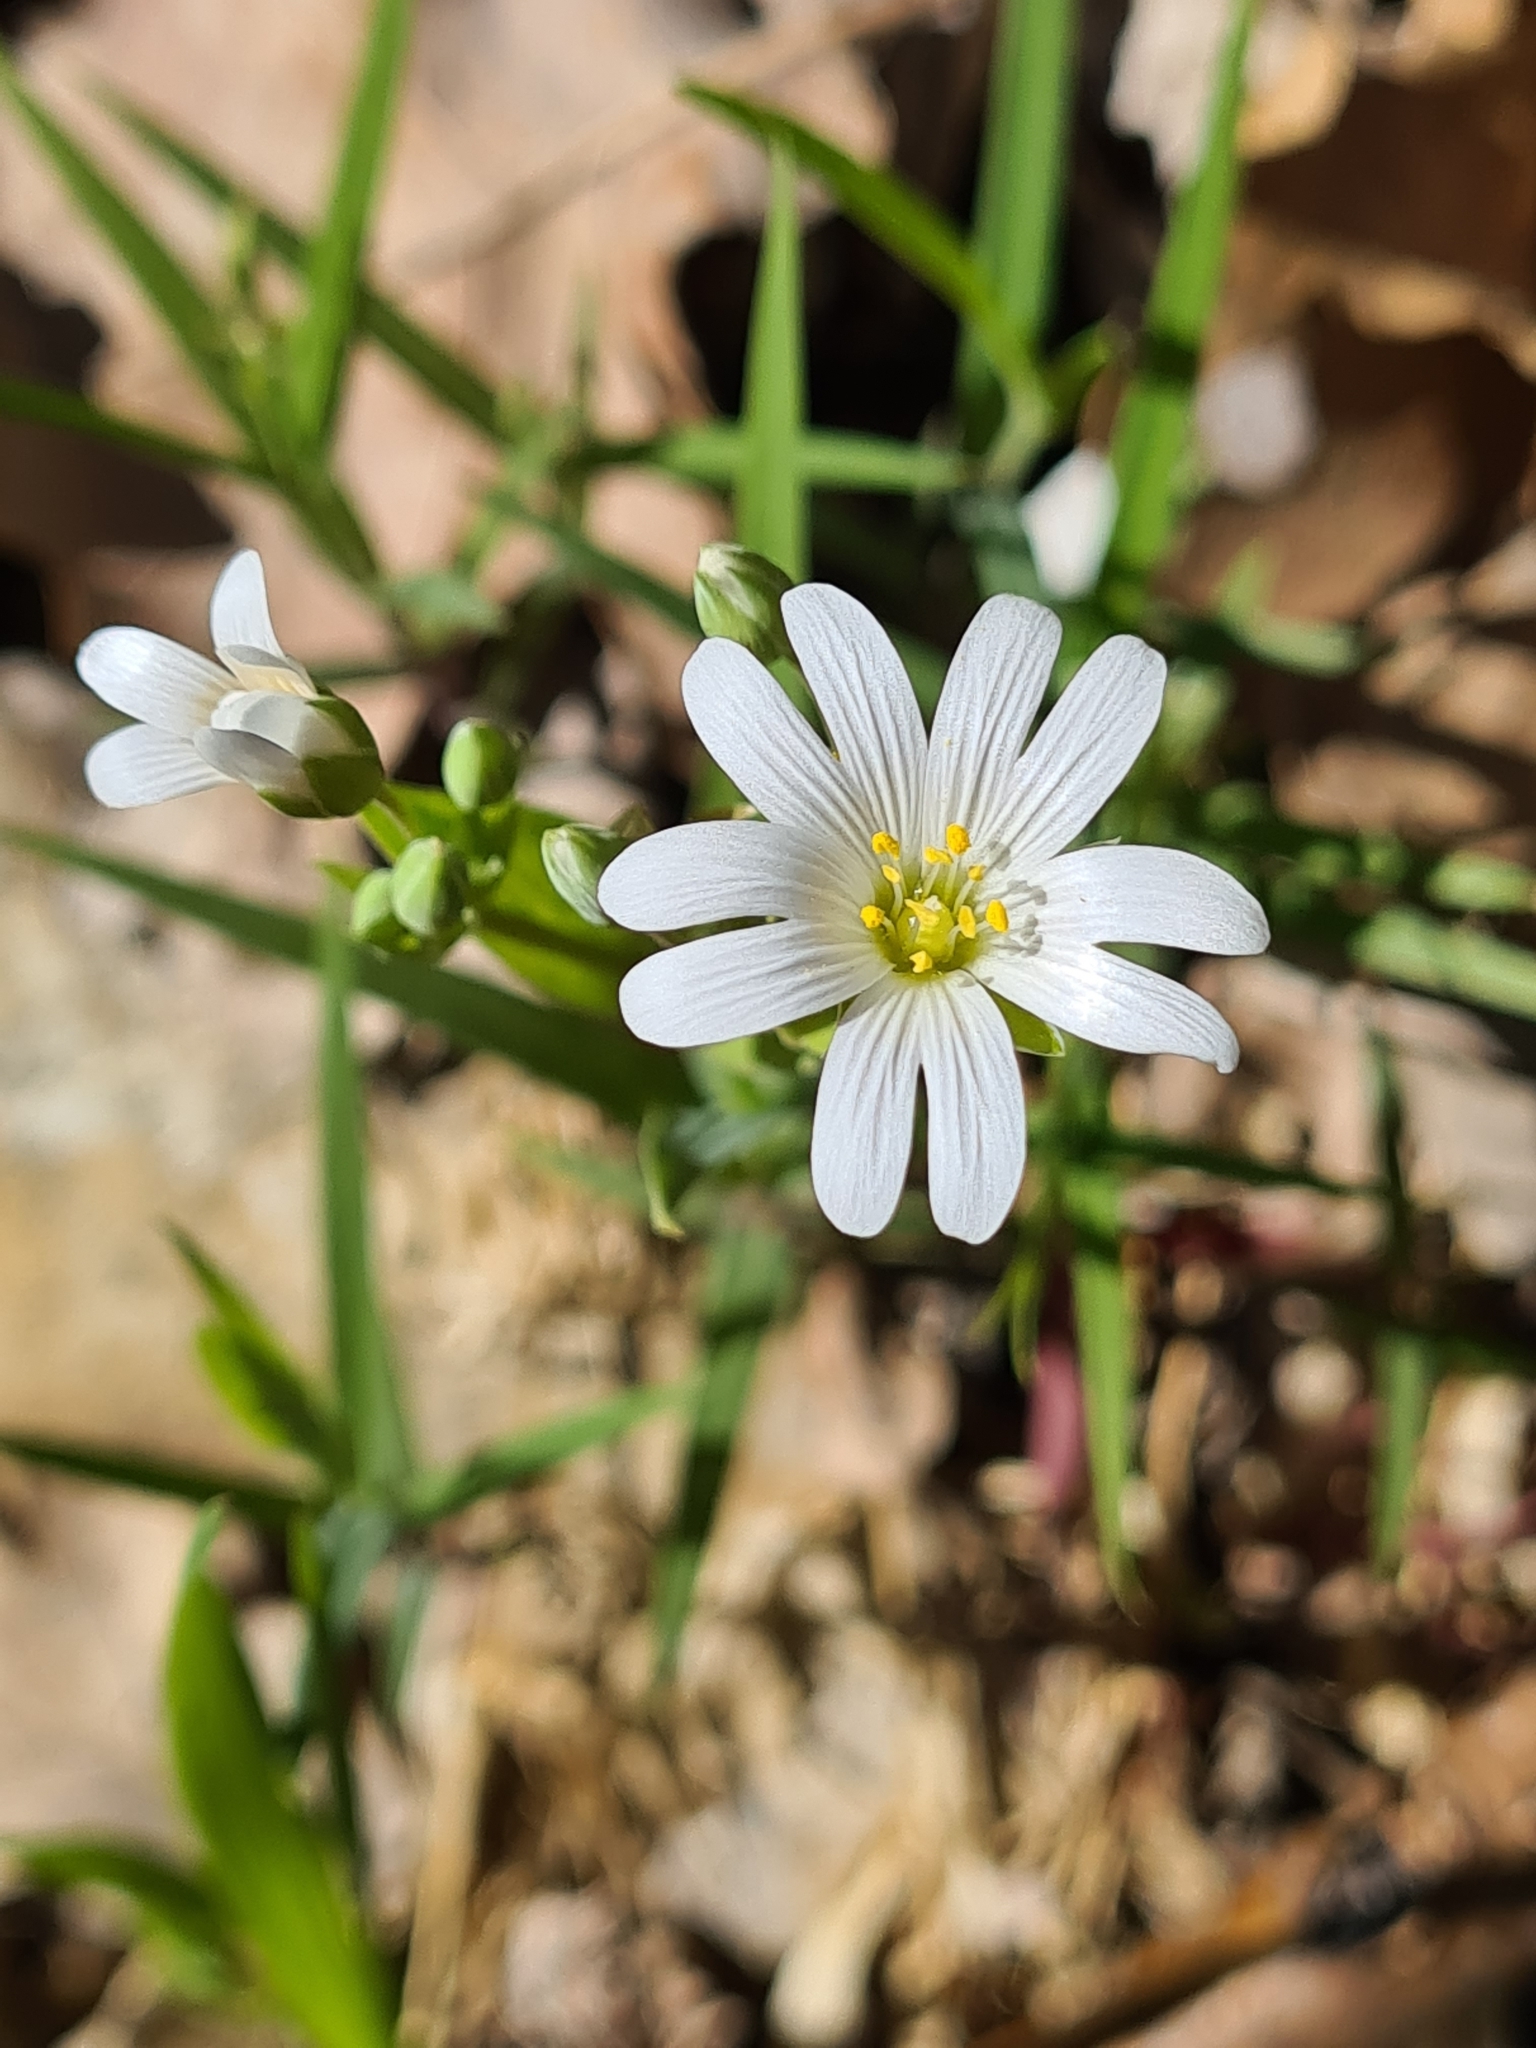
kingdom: Plantae
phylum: Tracheophyta
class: Magnoliopsida
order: Caryophyllales
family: Caryophyllaceae
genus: Rabelera
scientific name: Rabelera holostea
